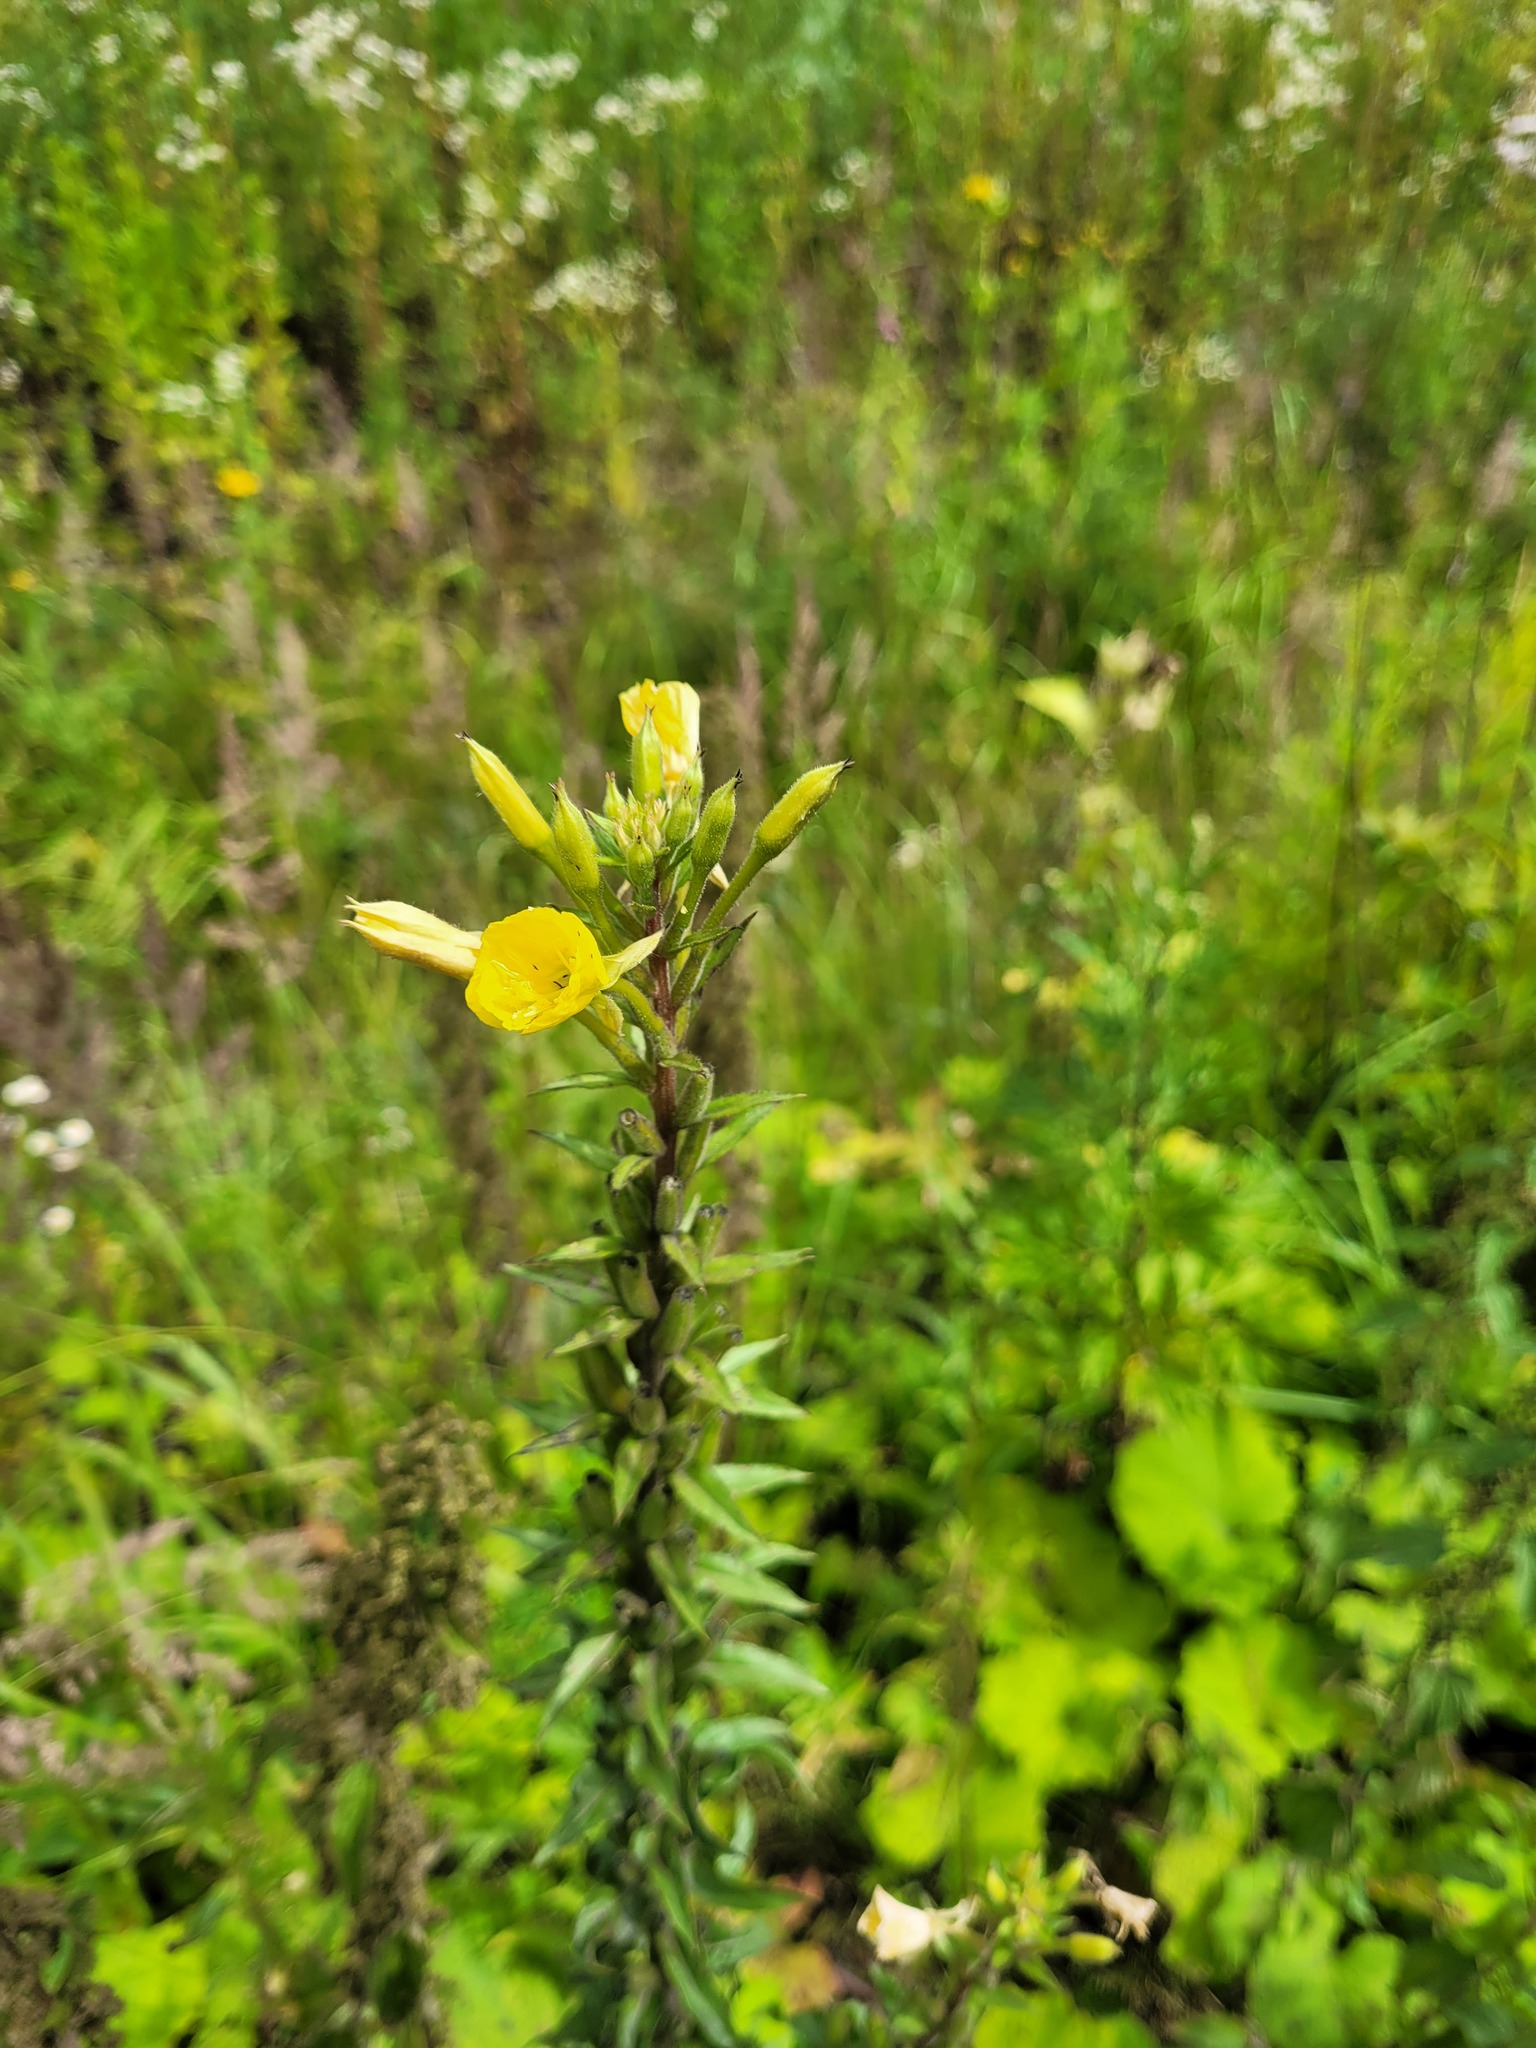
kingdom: Plantae
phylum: Tracheophyta
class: Magnoliopsida
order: Myrtales
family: Onagraceae
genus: Oenothera
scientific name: Oenothera rubricaulis
